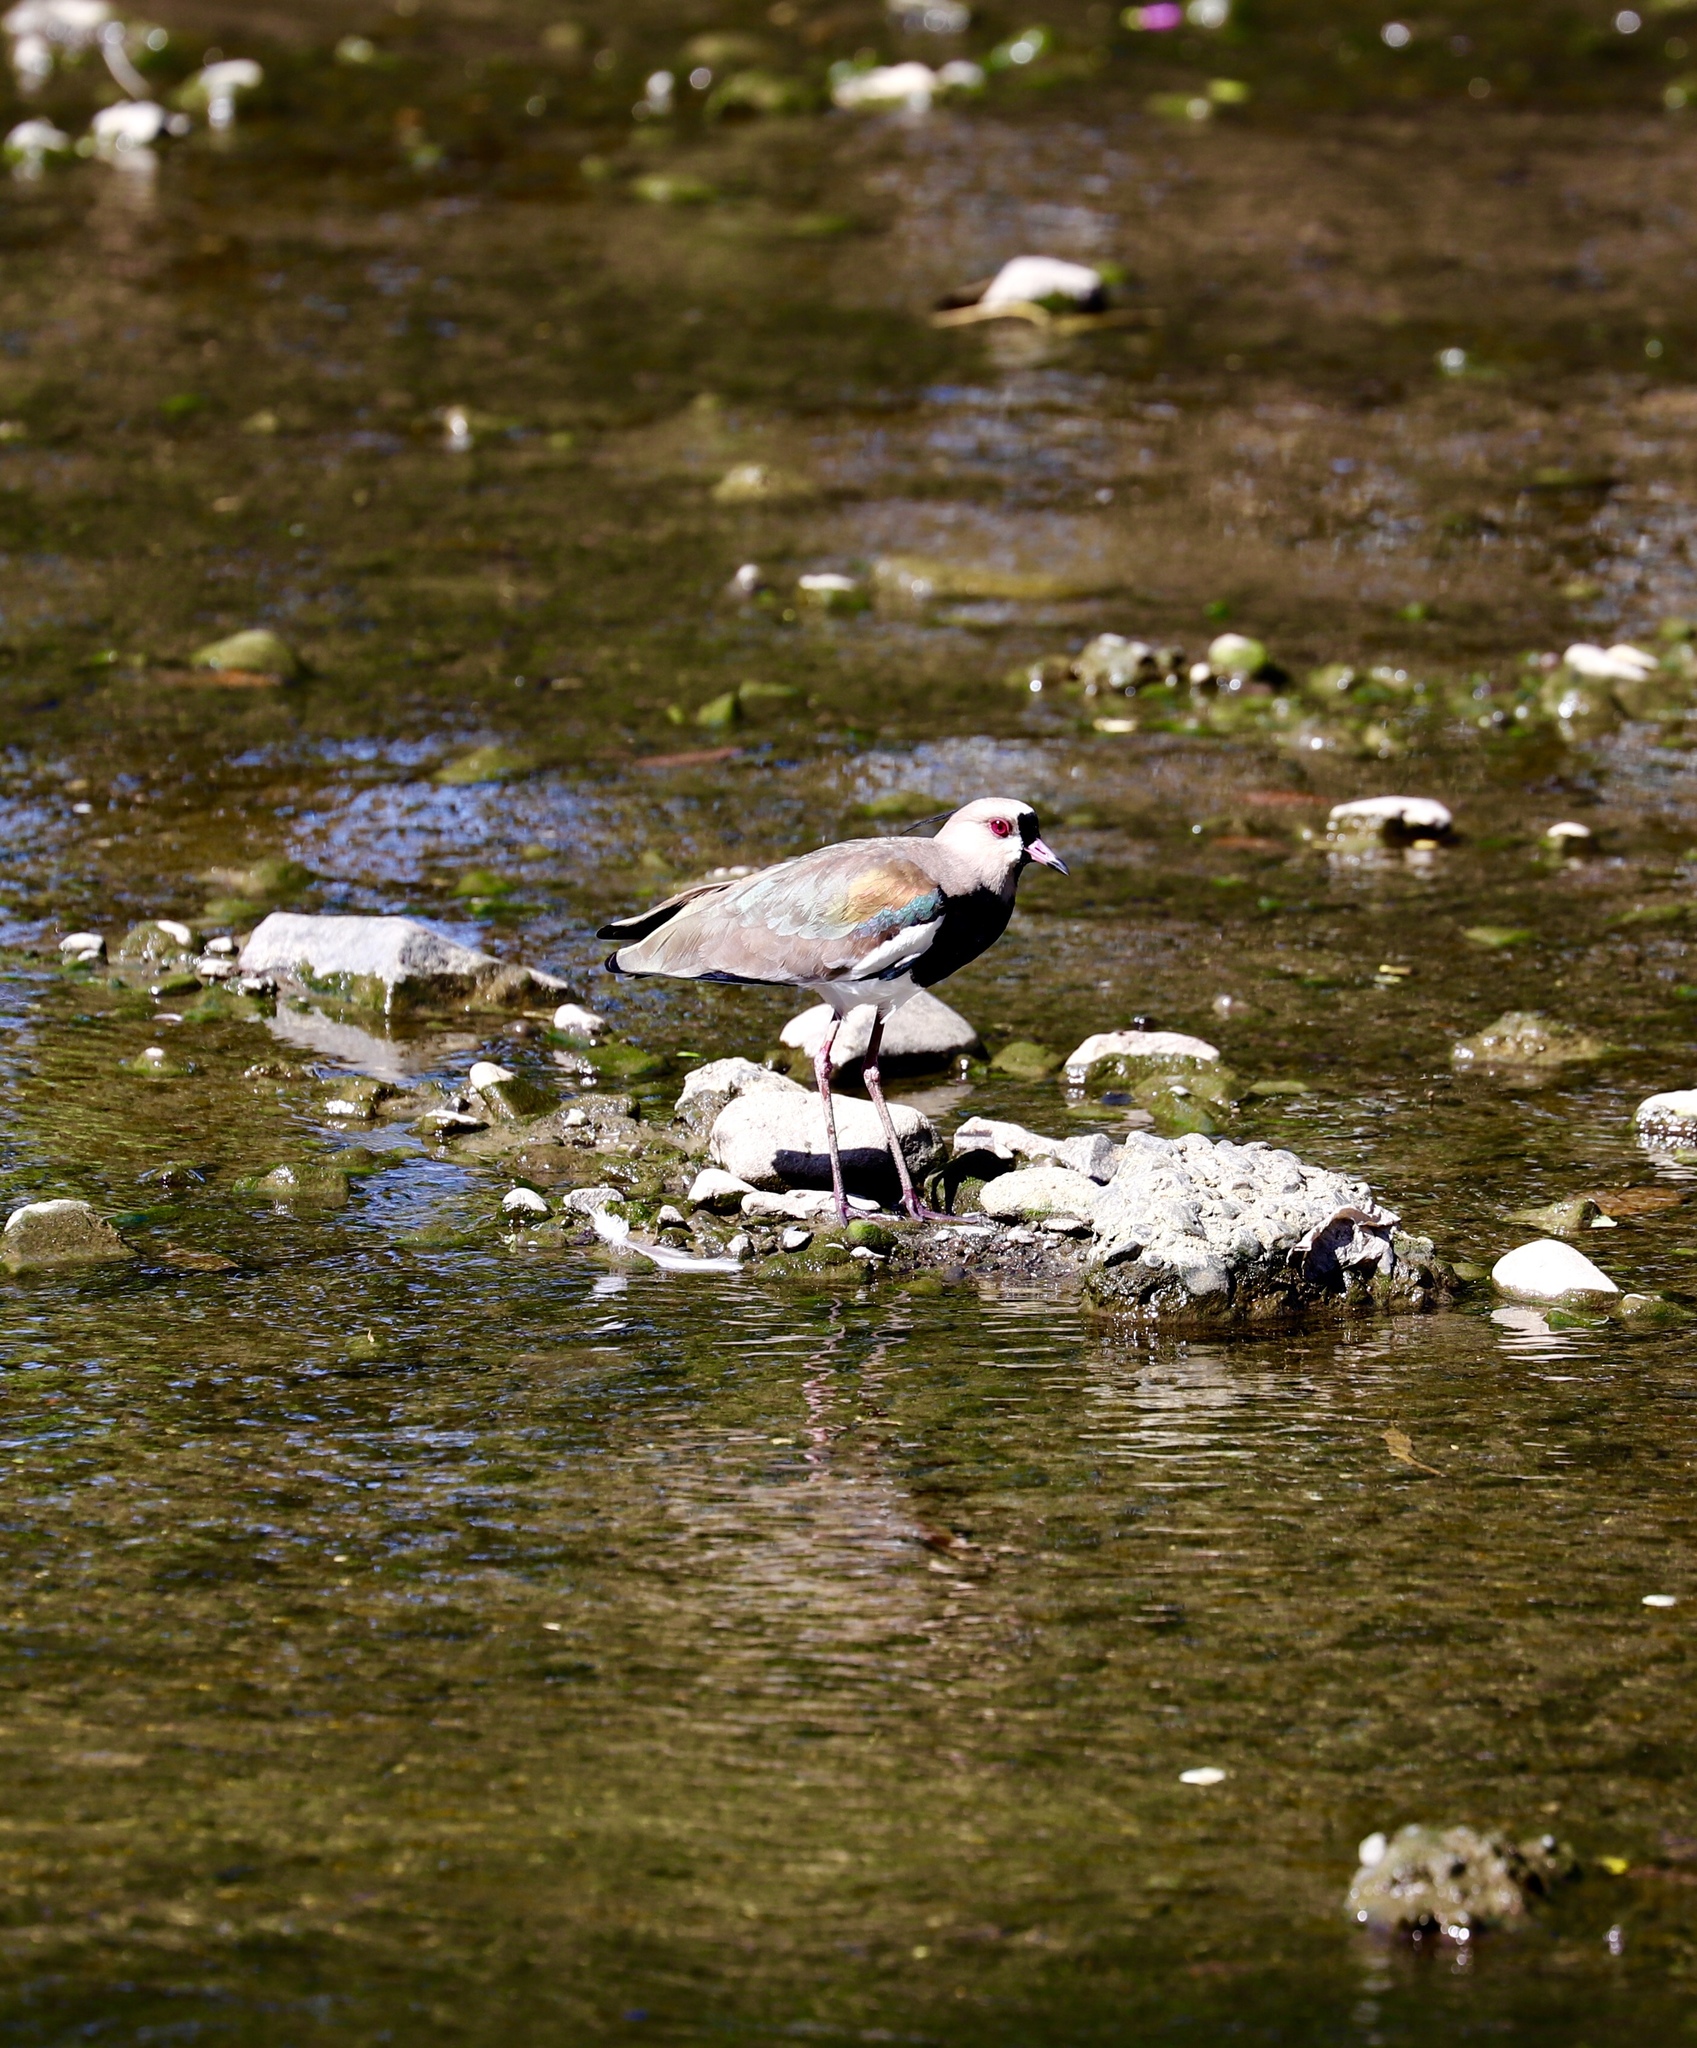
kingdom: Animalia
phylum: Chordata
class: Aves
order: Charadriiformes
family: Charadriidae
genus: Vanellus
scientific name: Vanellus chilensis
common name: Southern lapwing
